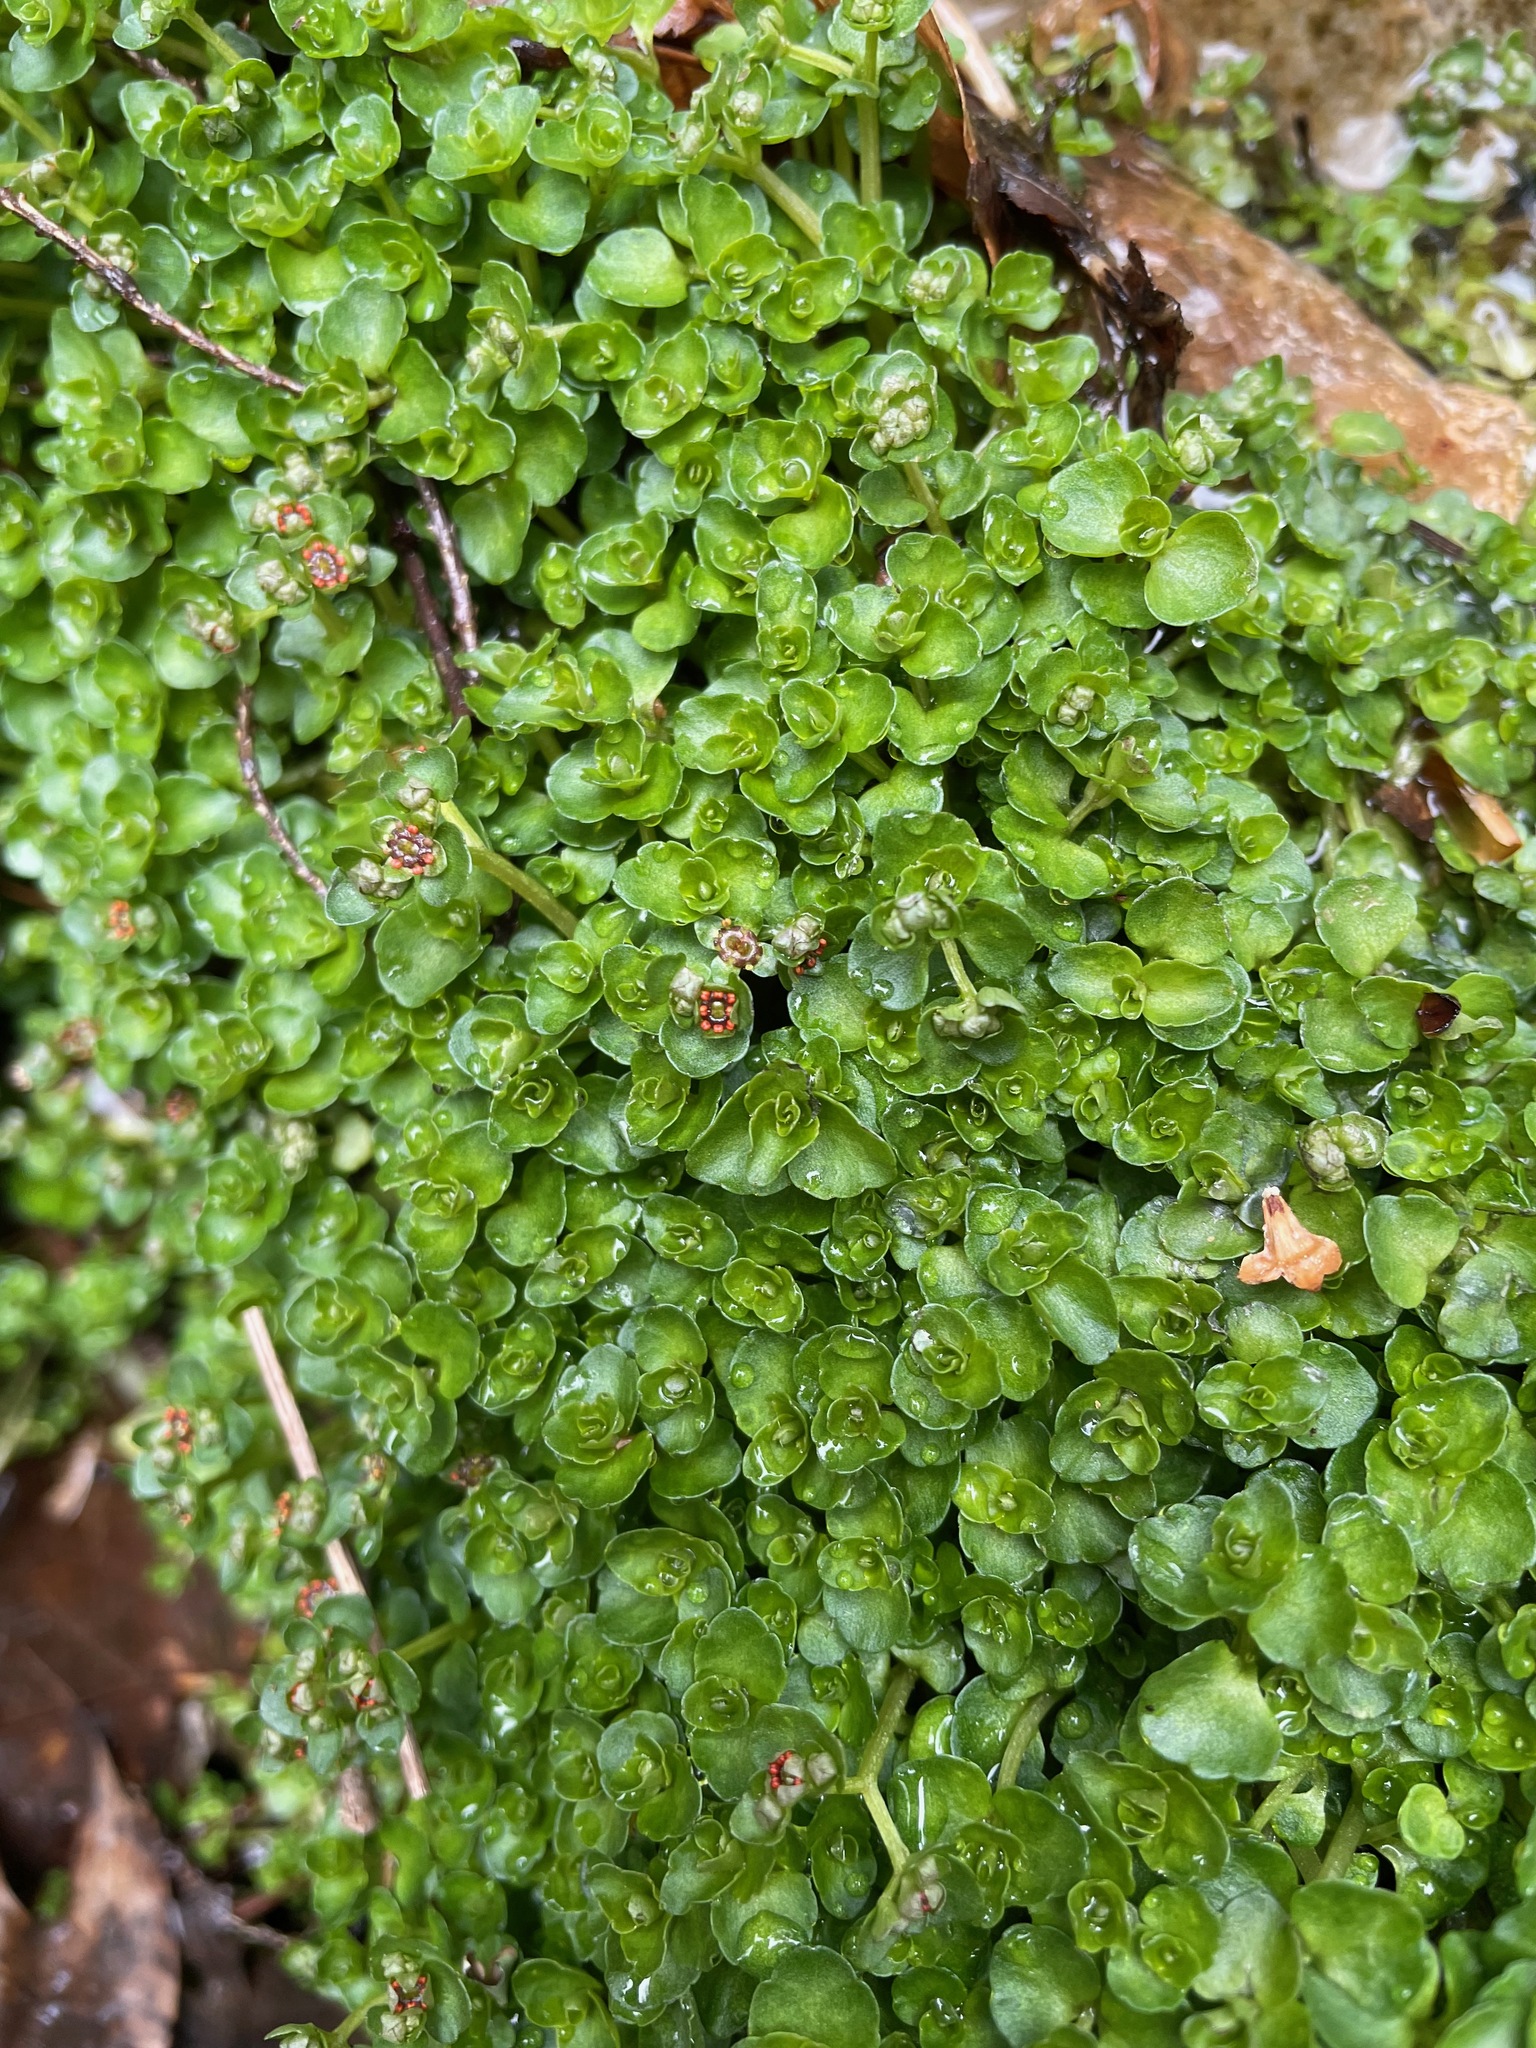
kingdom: Plantae
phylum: Tracheophyta
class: Magnoliopsida
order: Saxifragales
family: Saxifragaceae
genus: Chrysosplenium
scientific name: Chrysosplenium americanum
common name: American golden-saxifrage
